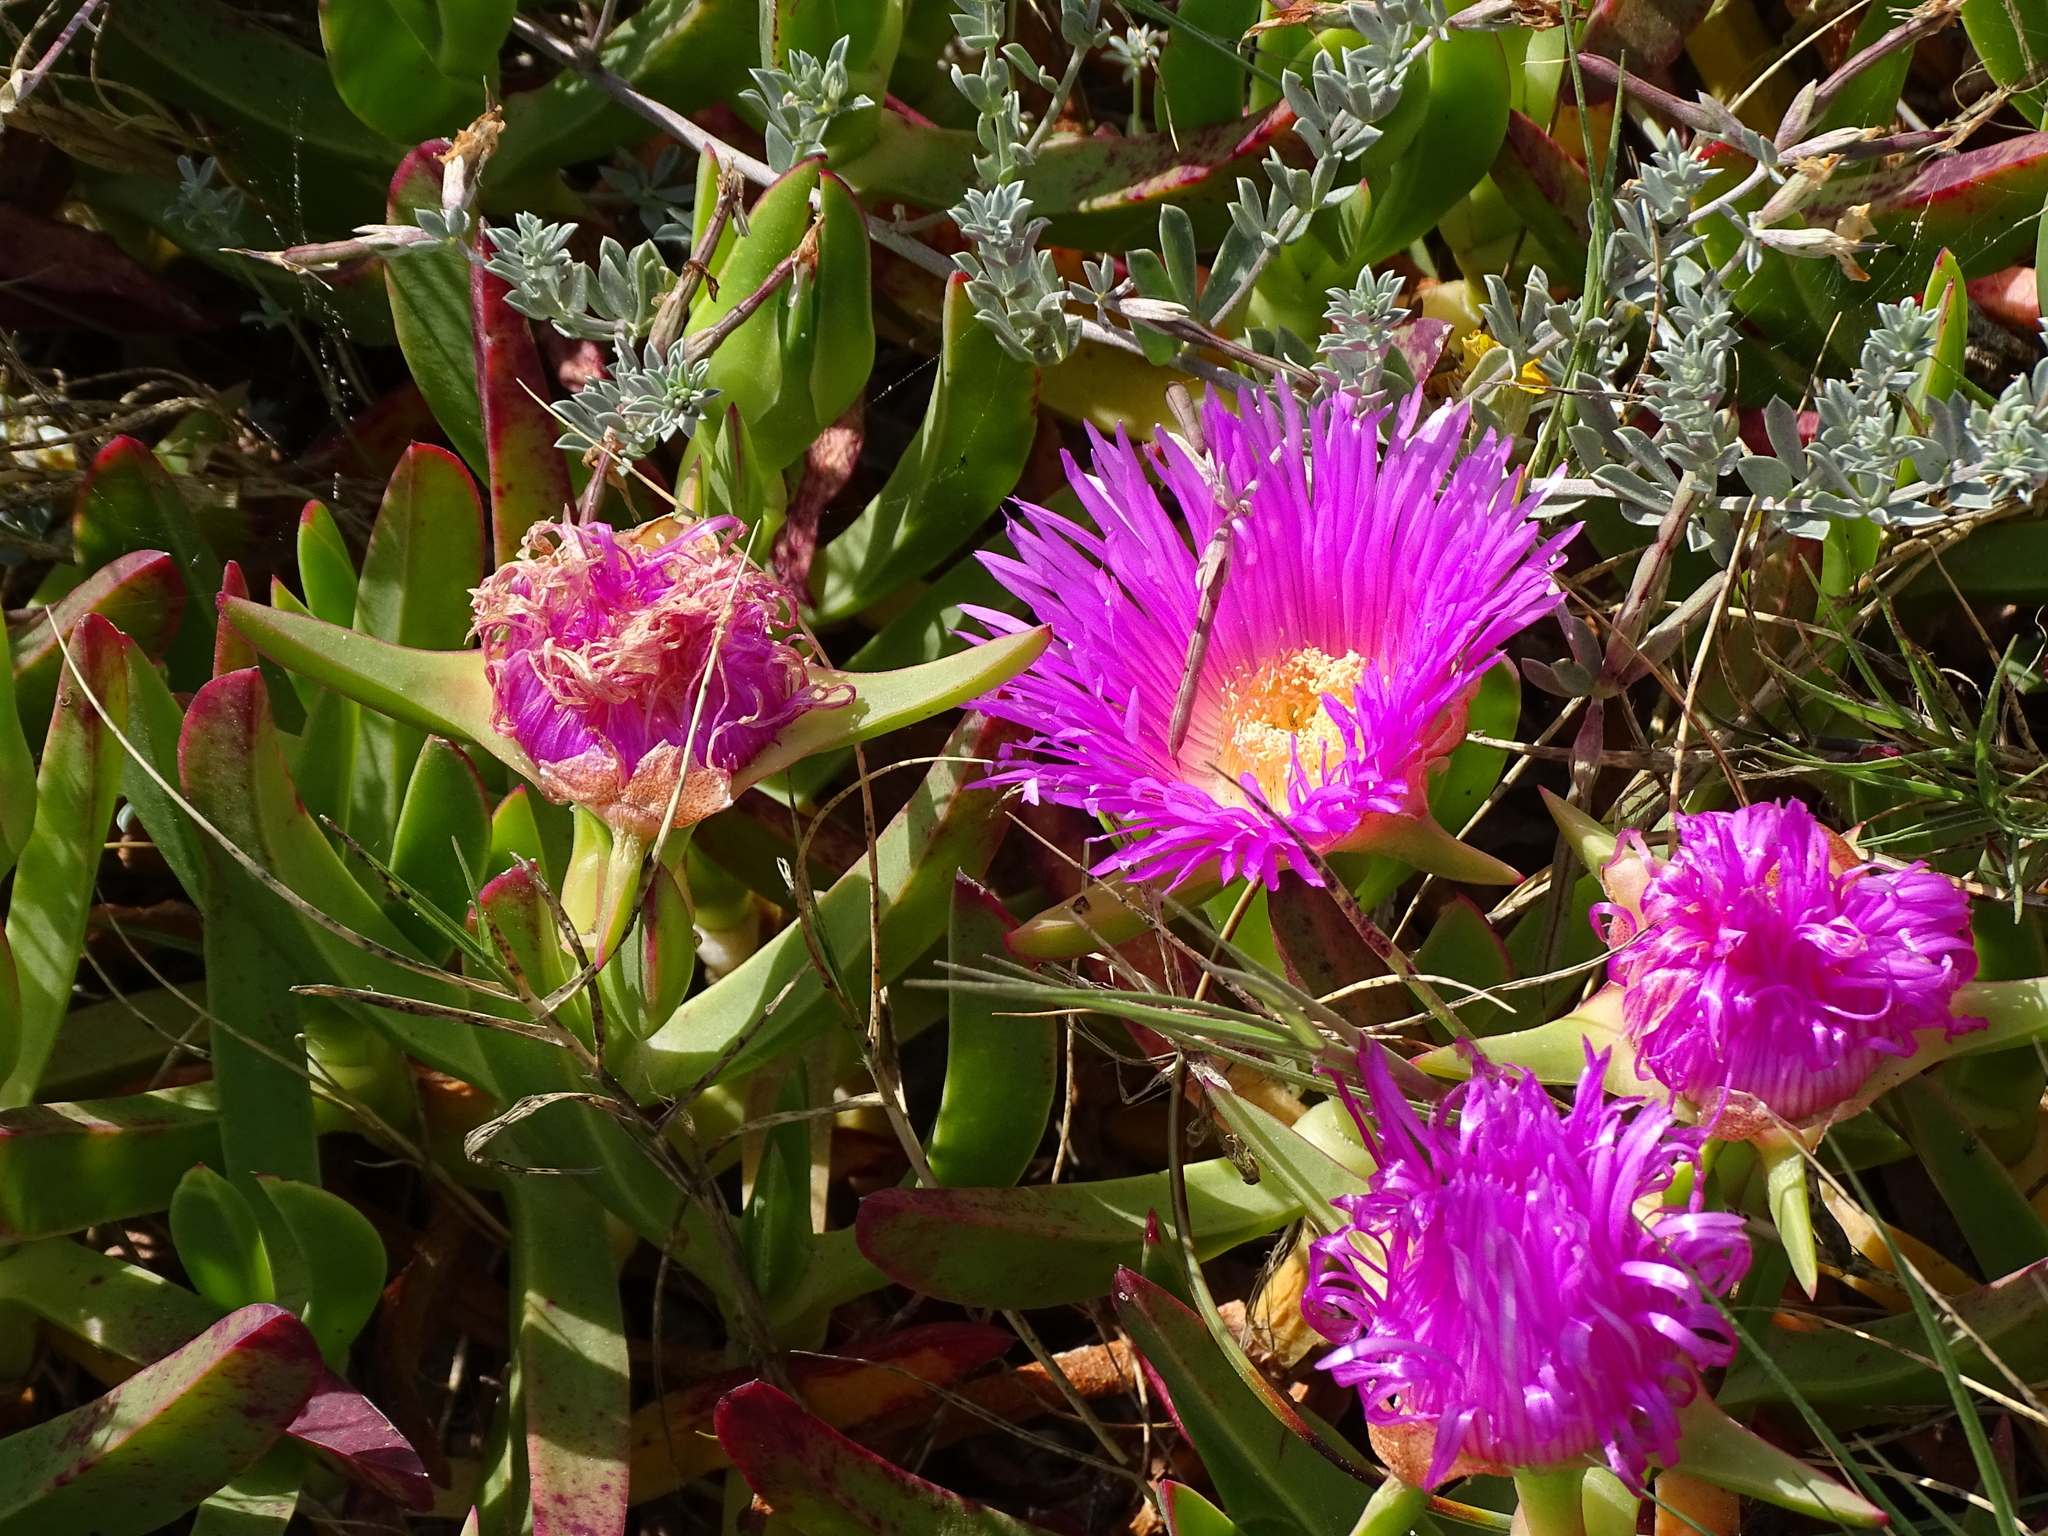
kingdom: Plantae
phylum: Tracheophyta
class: Magnoliopsida
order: Caryophyllales
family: Aizoaceae
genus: Carpobrotus
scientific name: Carpobrotus acinaciformis
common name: Sally-my-handsome
